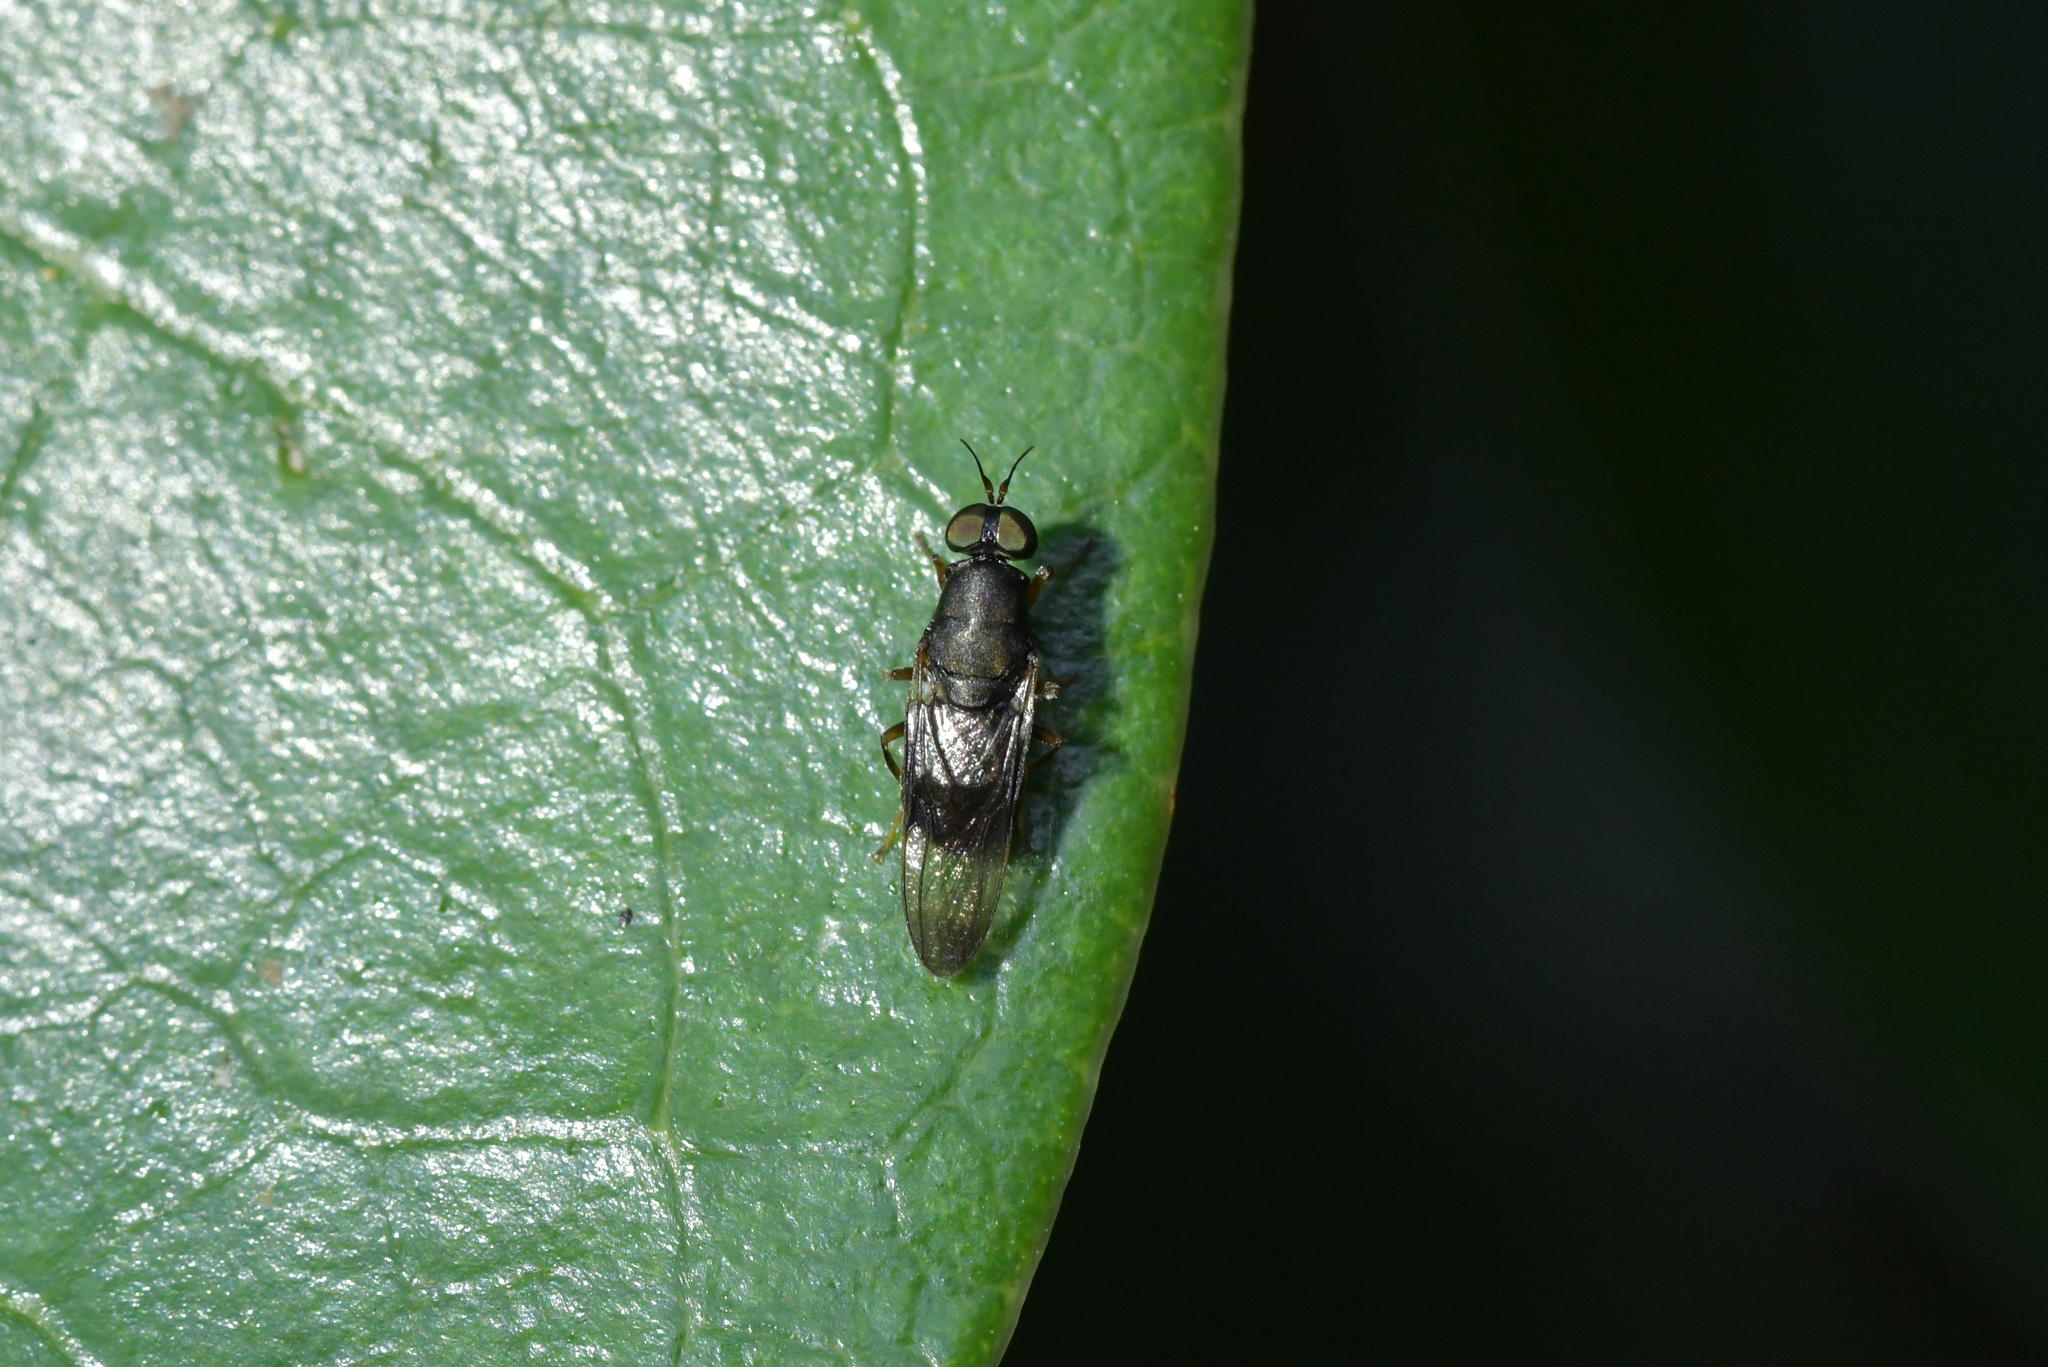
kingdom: Animalia
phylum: Arthropoda
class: Insecta
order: Diptera
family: Stratiomyidae
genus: Dysbiota
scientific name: Dysbiota peregrina
